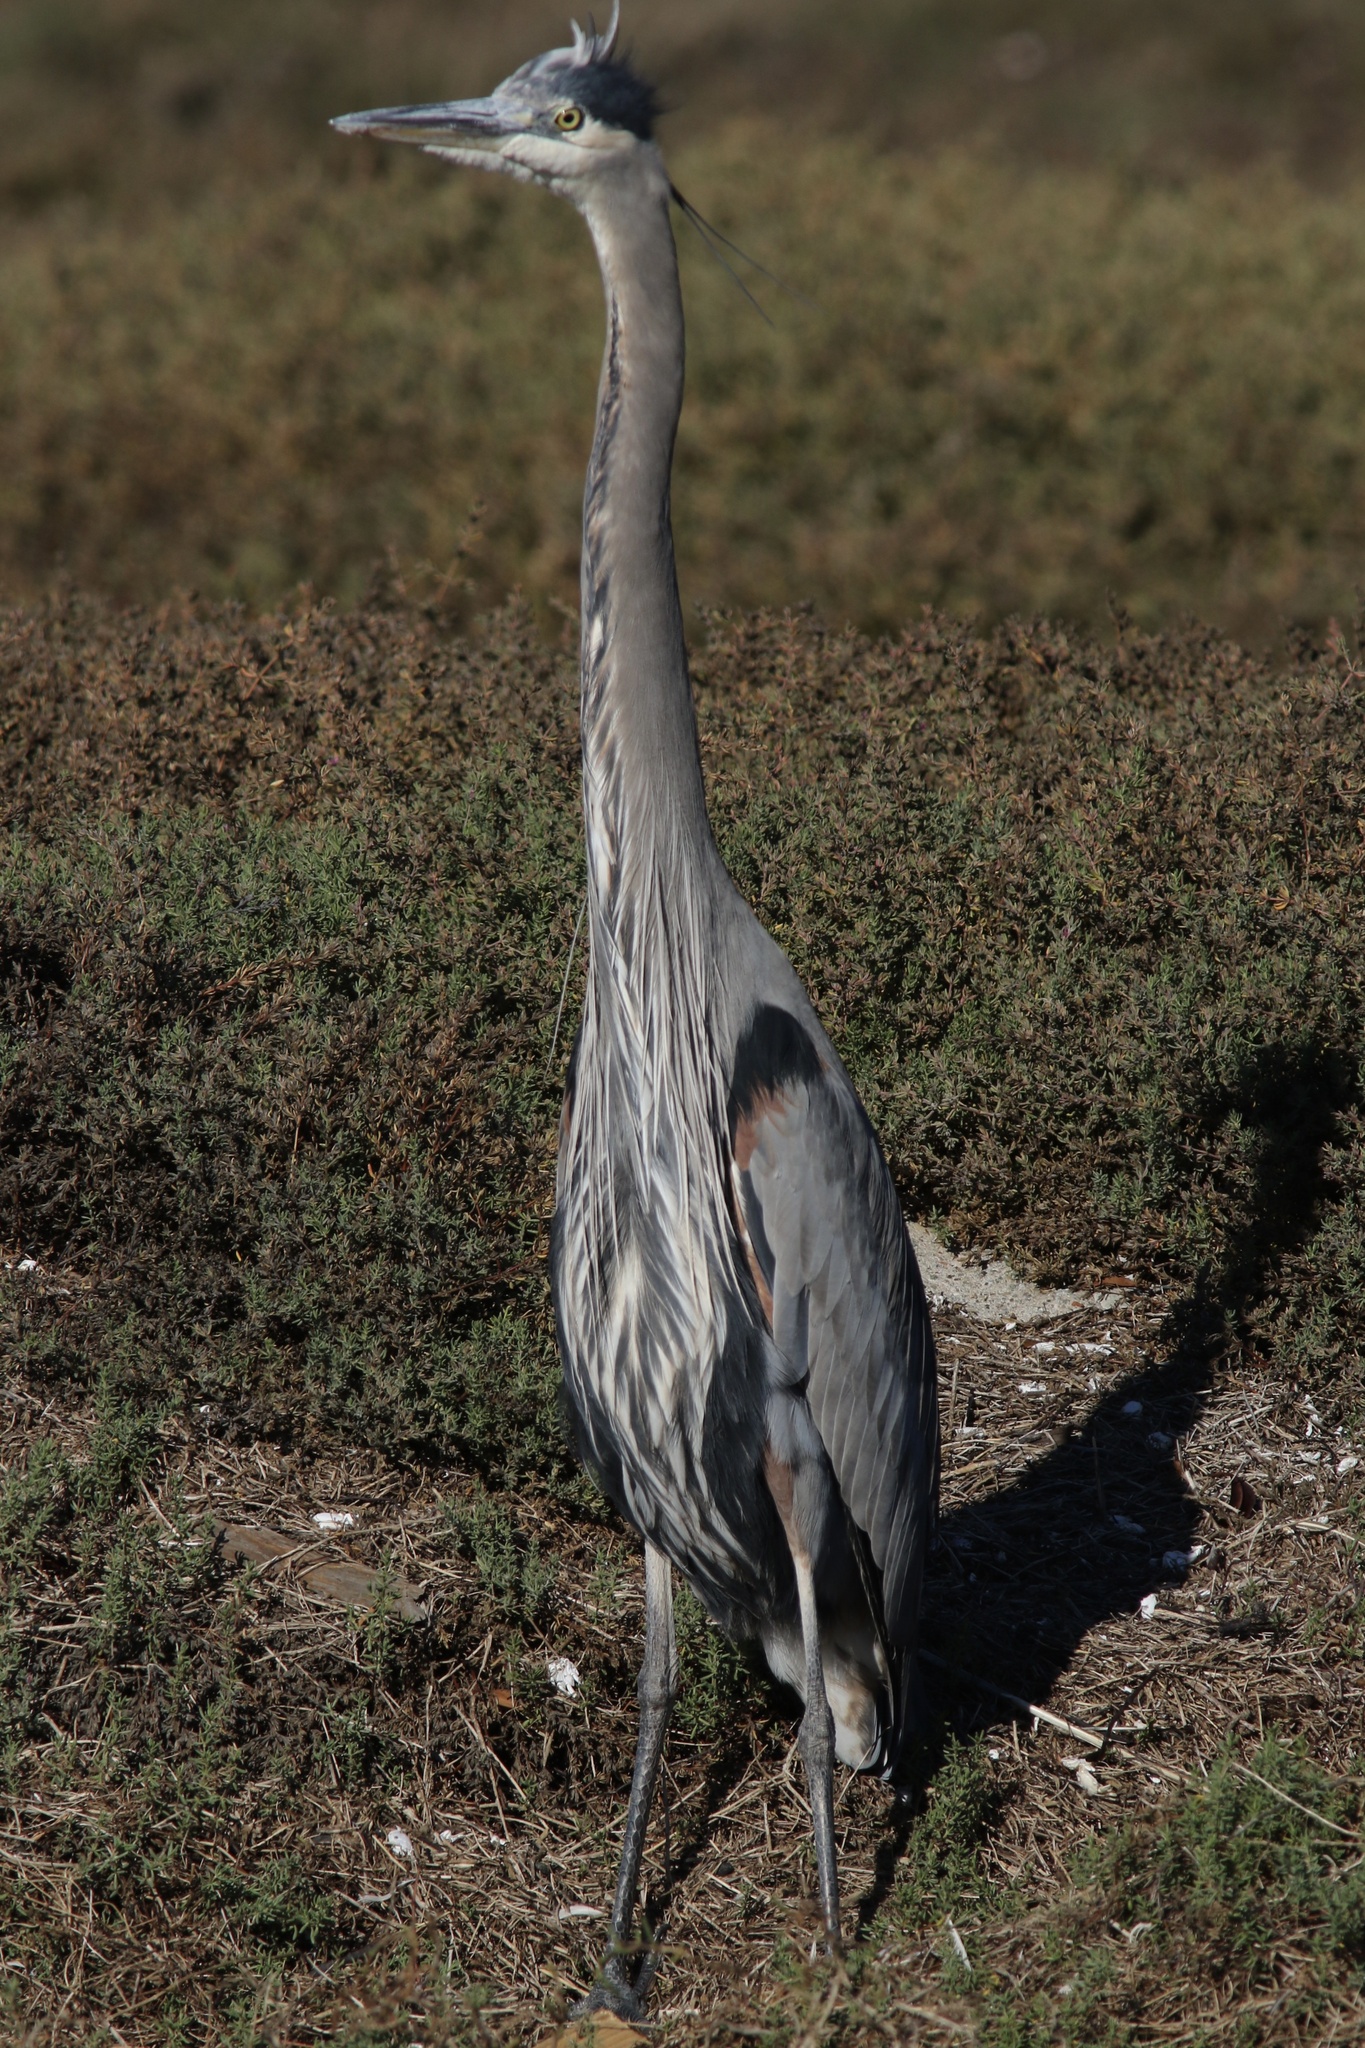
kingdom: Animalia
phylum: Chordata
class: Aves
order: Pelecaniformes
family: Ardeidae
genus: Ardea
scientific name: Ardea herodias
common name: Great blue heron
